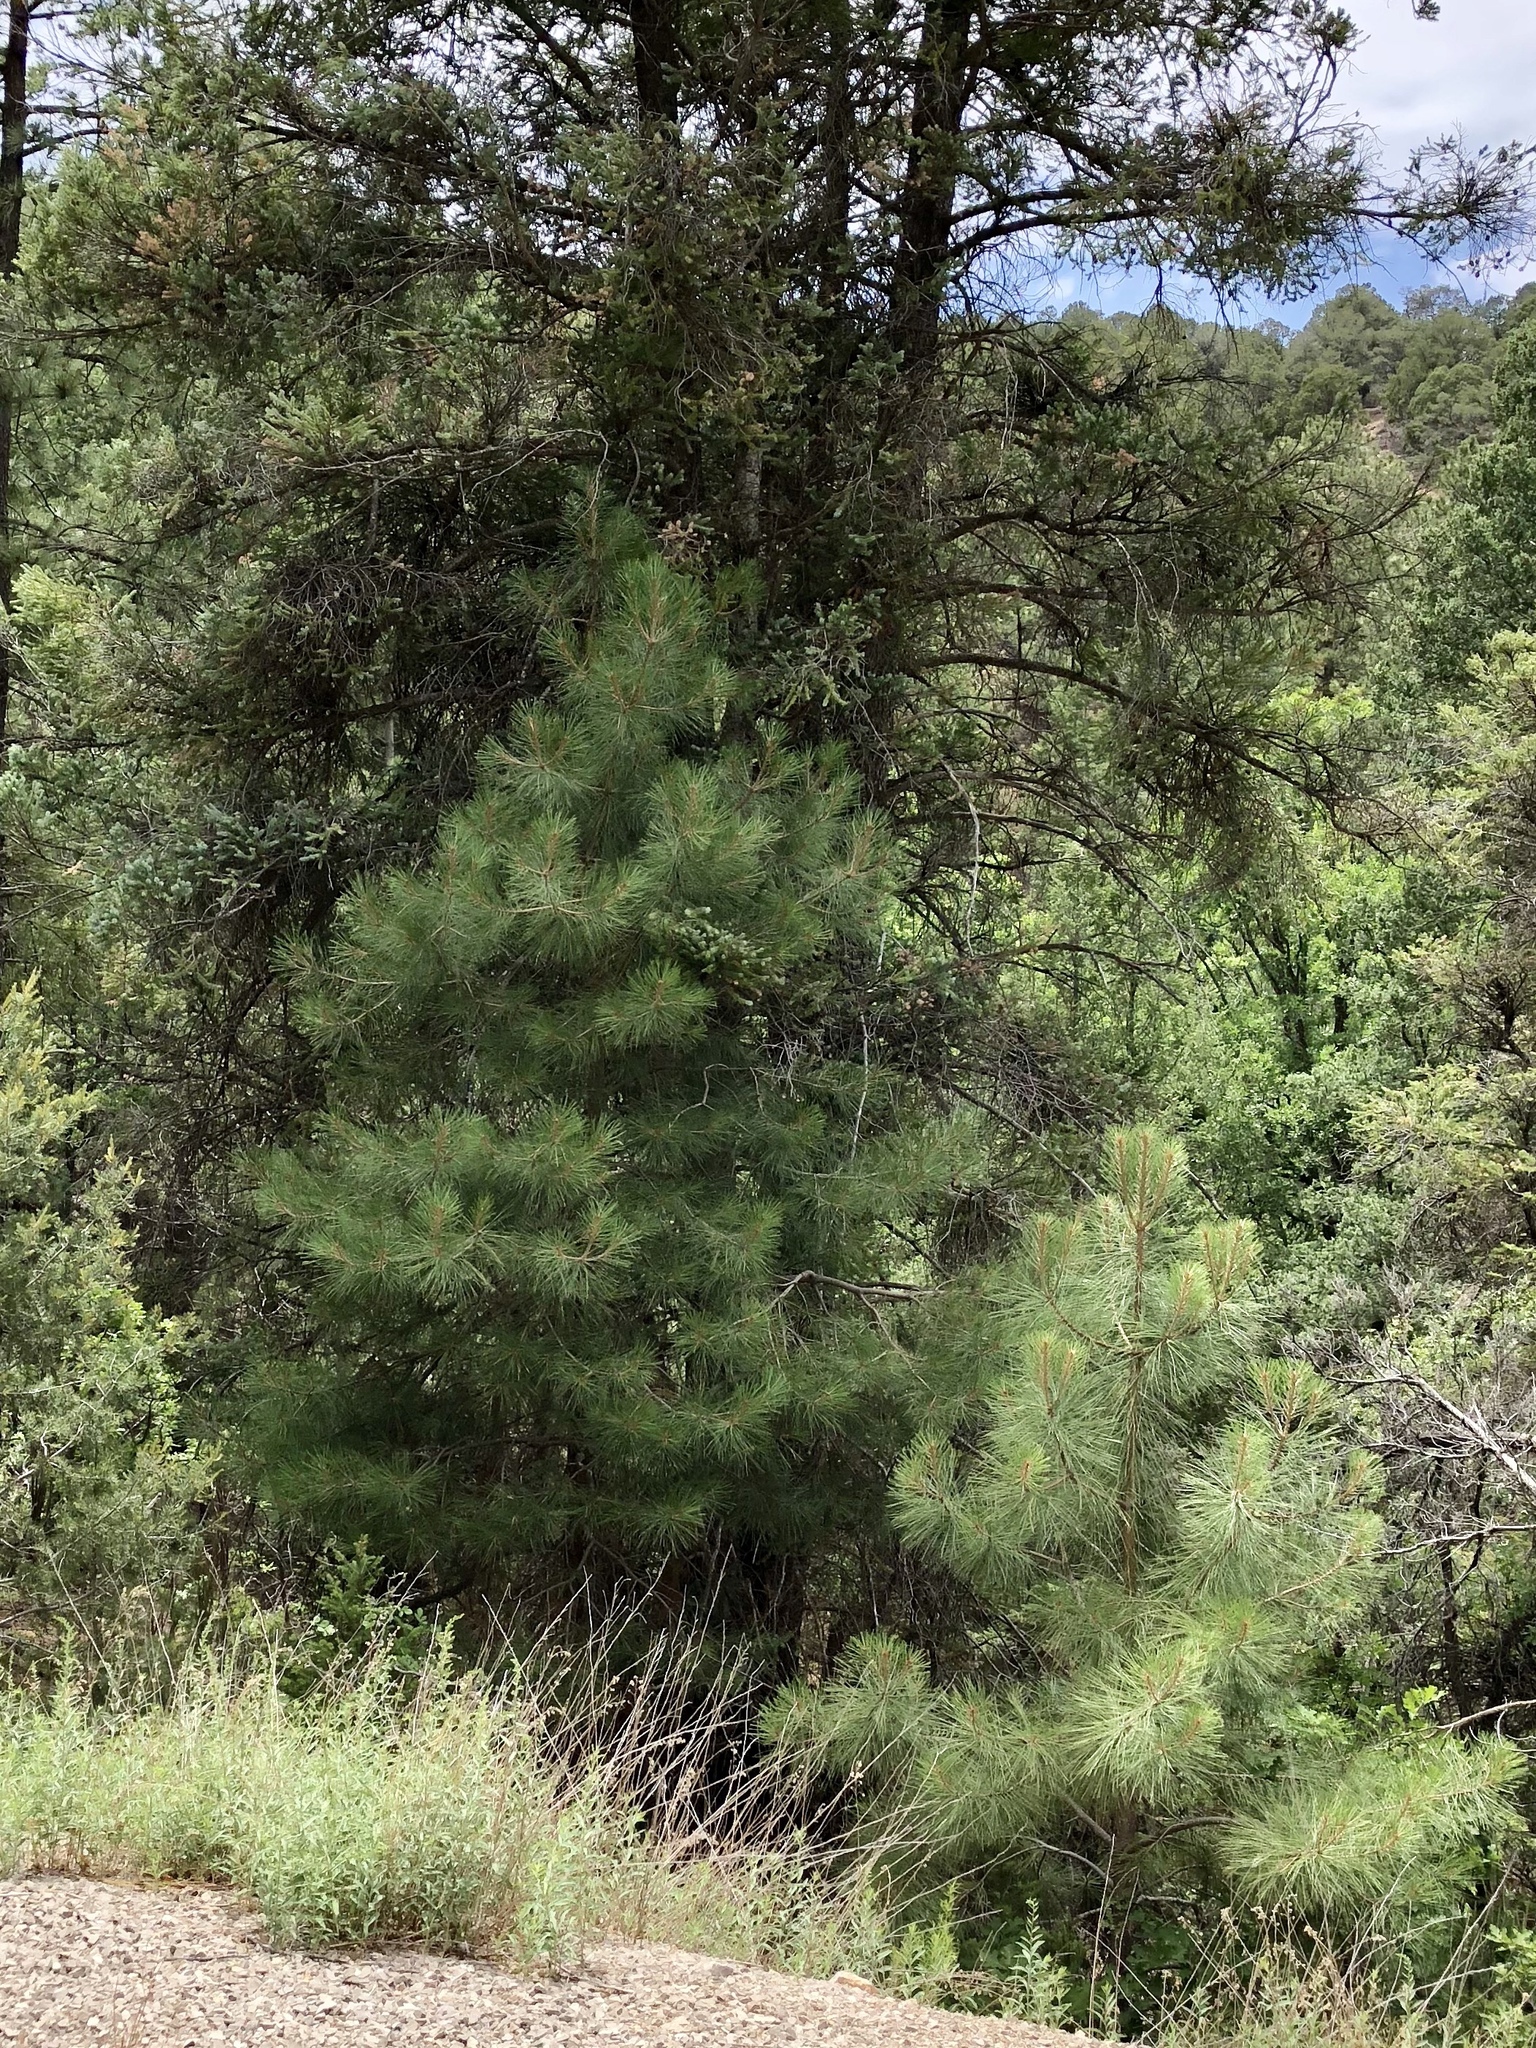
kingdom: Plantae
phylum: Tracheophyta
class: Pinopsida
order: Pinales
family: Pinaceae
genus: Pinus
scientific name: Pinus ponderosa
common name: Western yellow-pine
